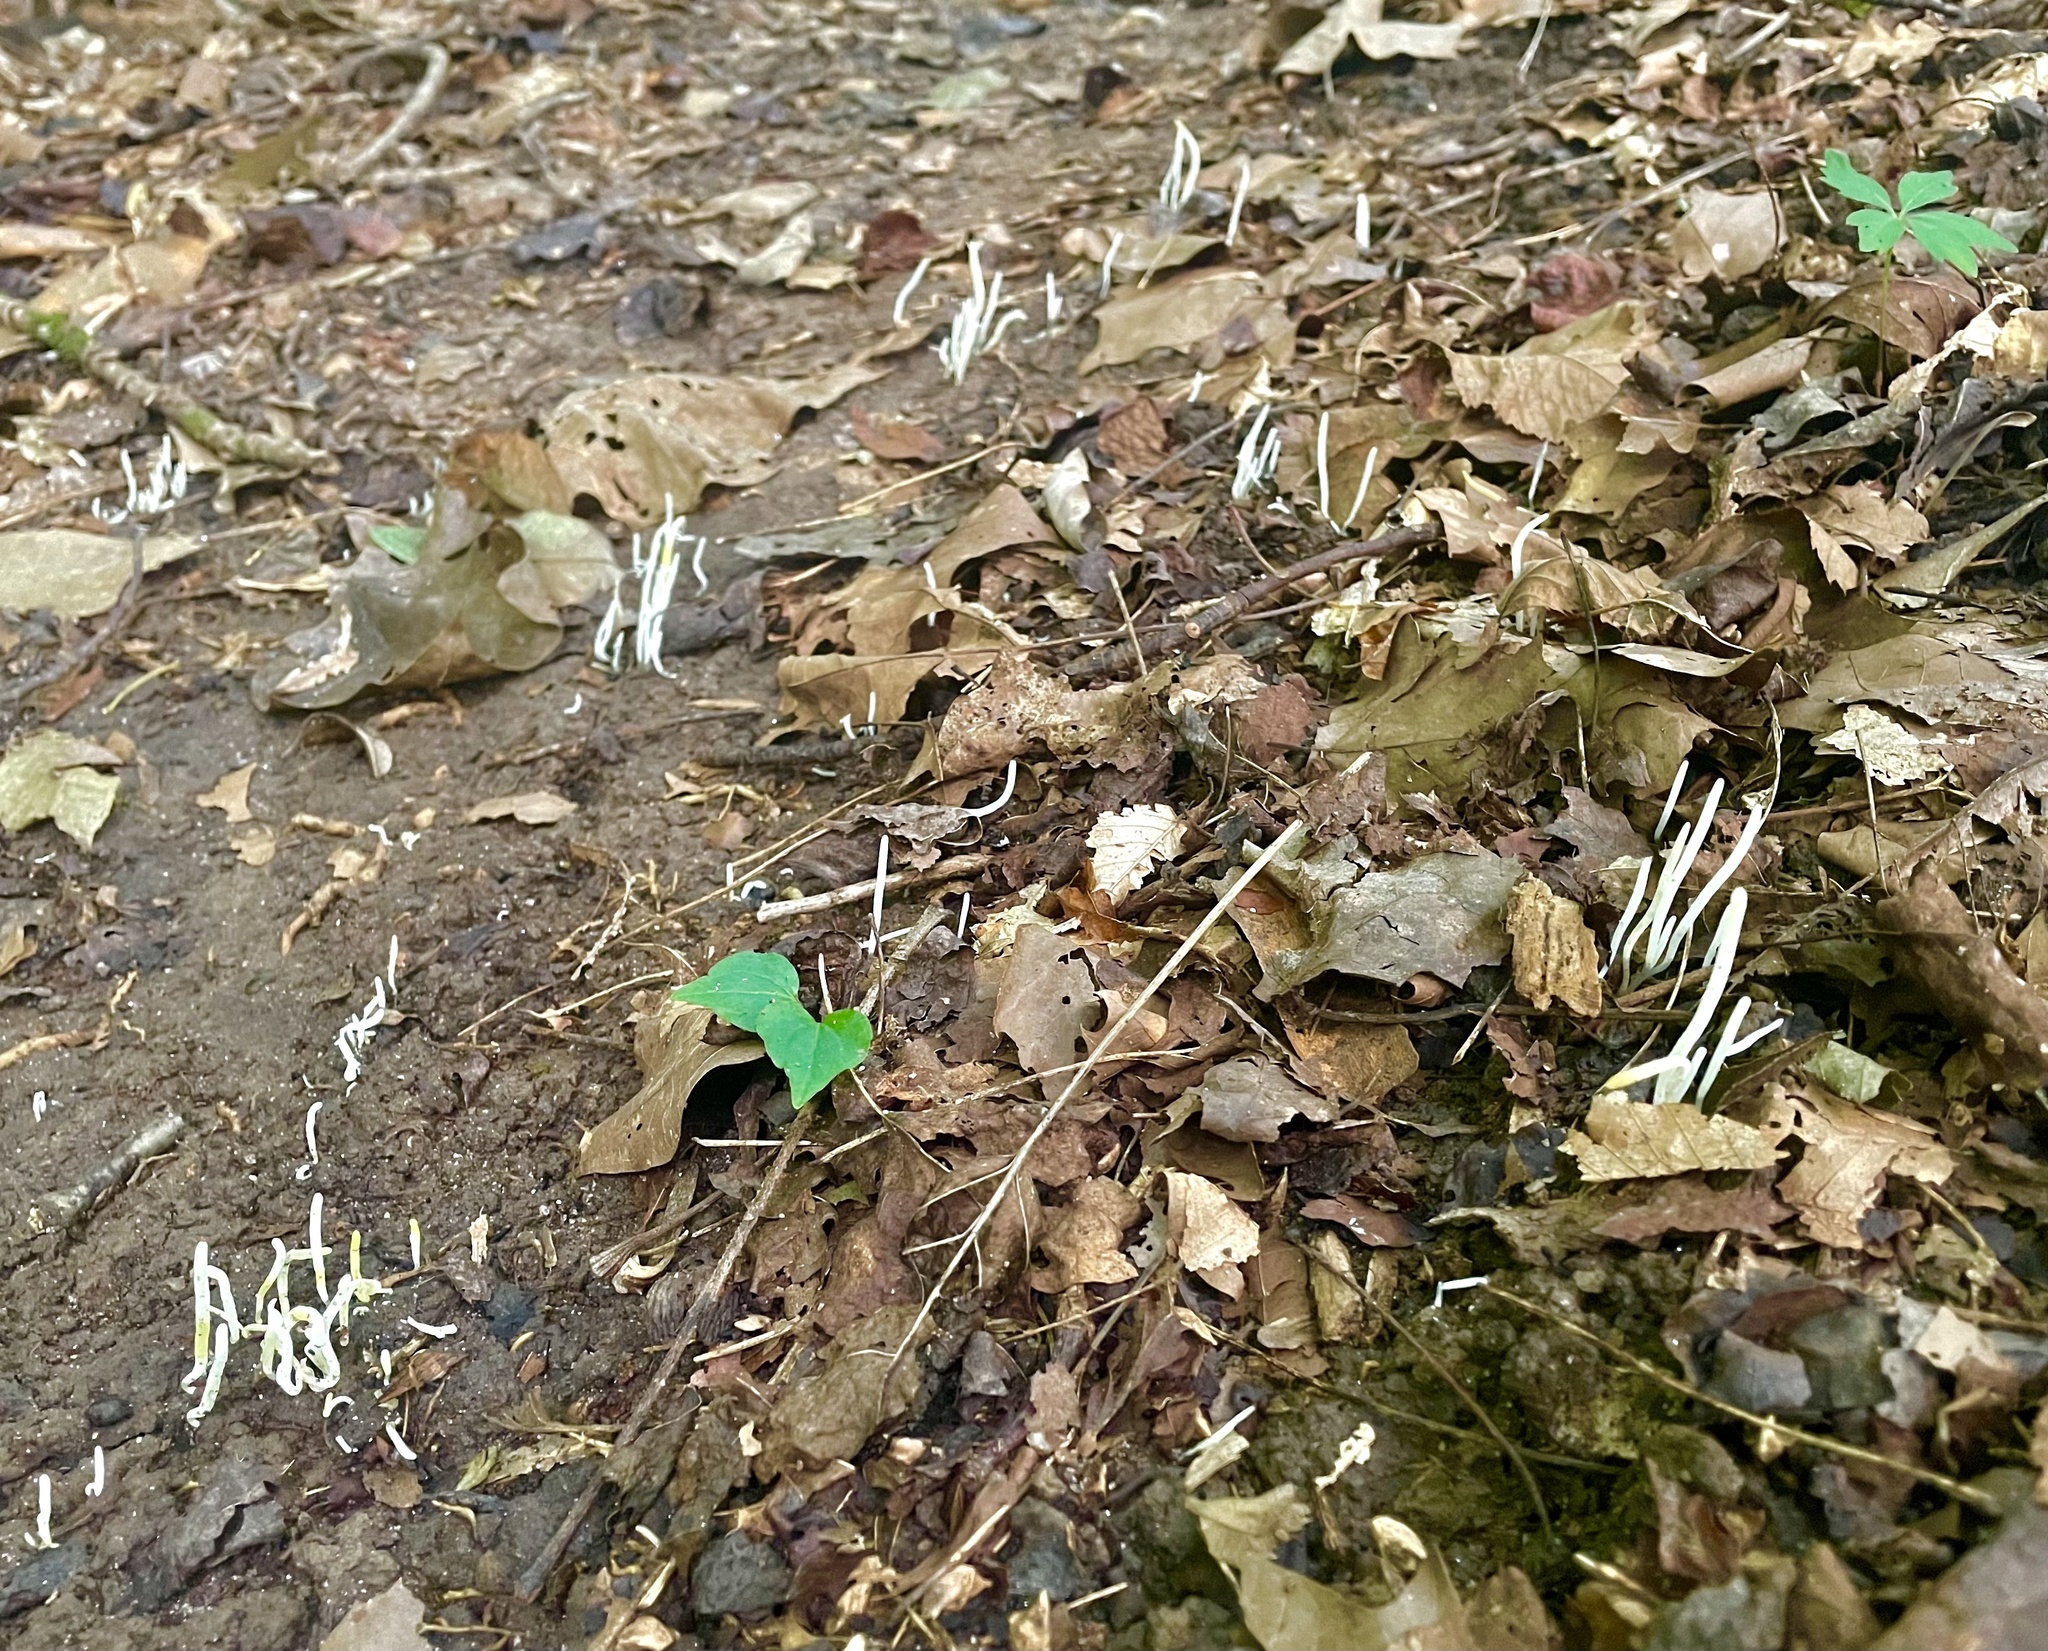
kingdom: Fungi
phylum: Basidiomycota
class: Agaricomycetes
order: Agaricales
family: Clavariaceae
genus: Clavaria
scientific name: Clavaria fragilis
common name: White spindles
